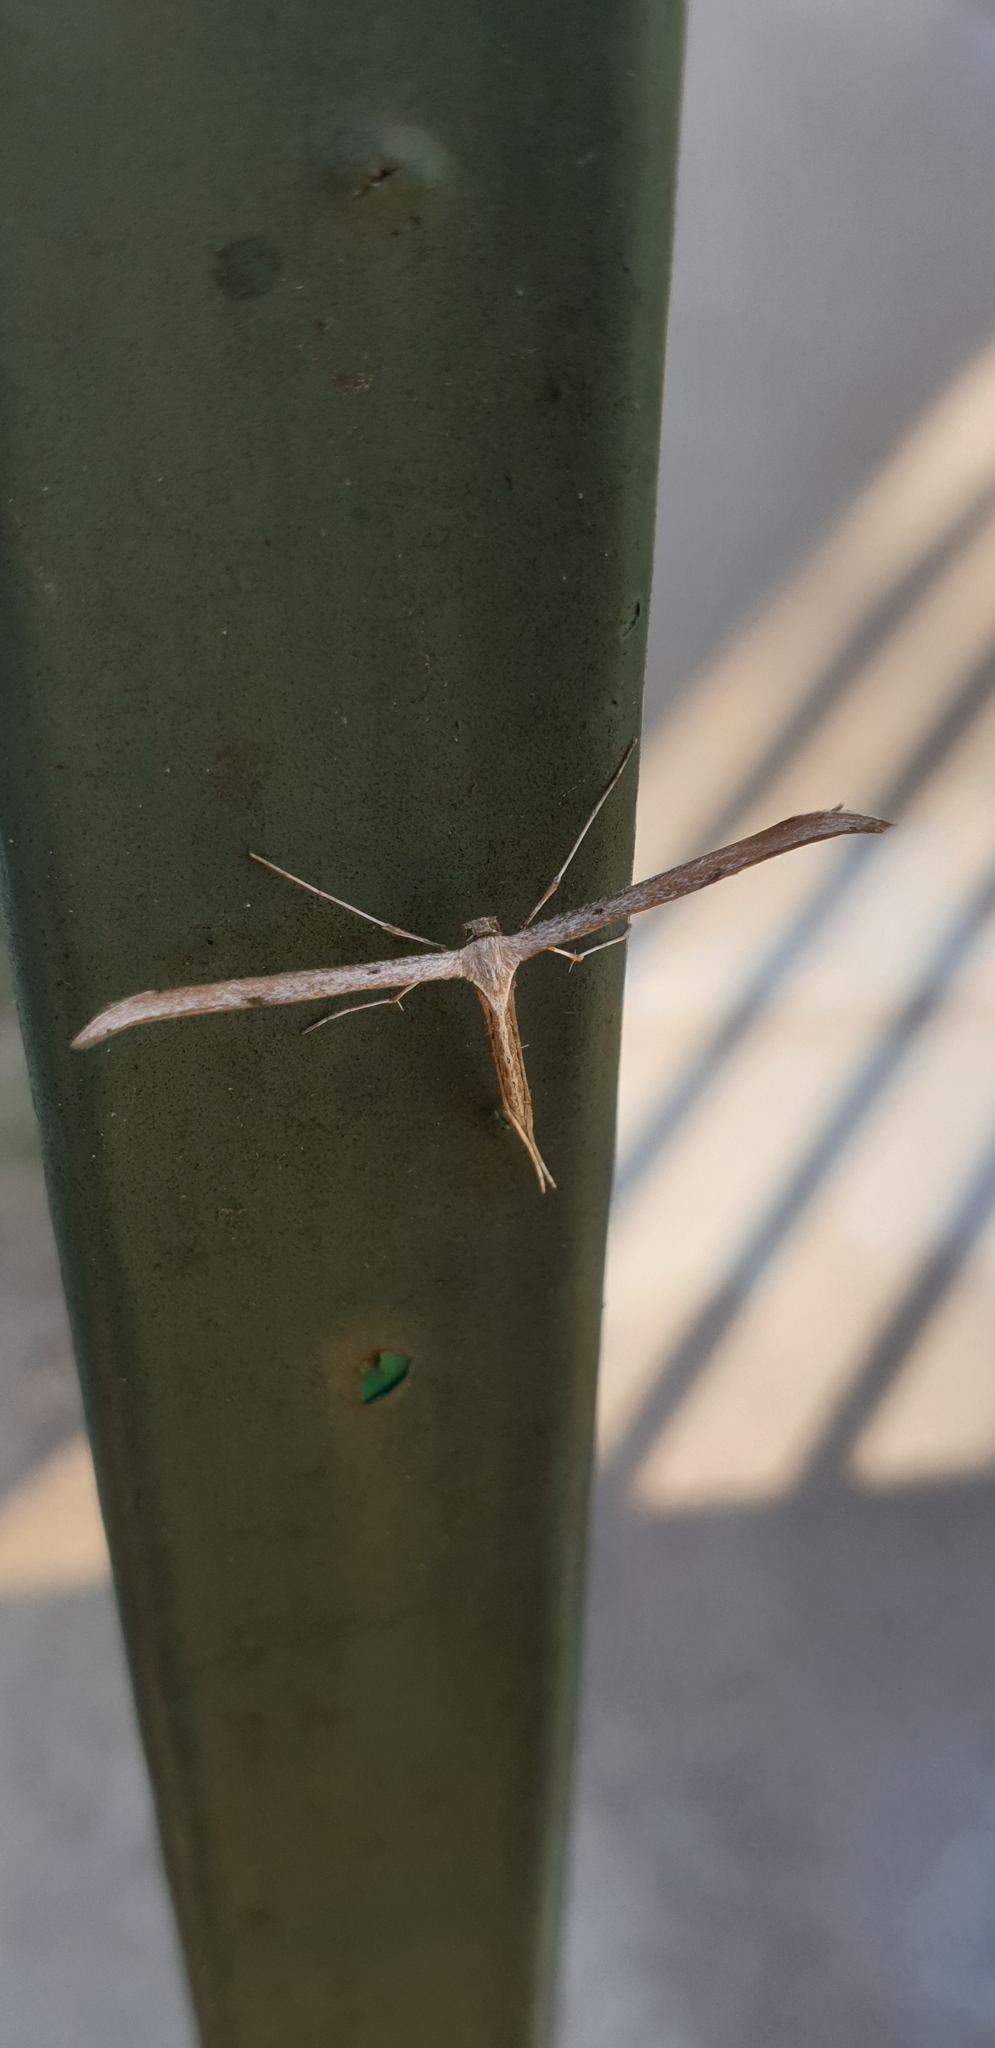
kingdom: Animalia
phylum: Arthropoda
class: Insecta
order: Lepidoptera
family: Pterophoridae
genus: Emmelina
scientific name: Emmelina monodactyla
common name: Common plume
